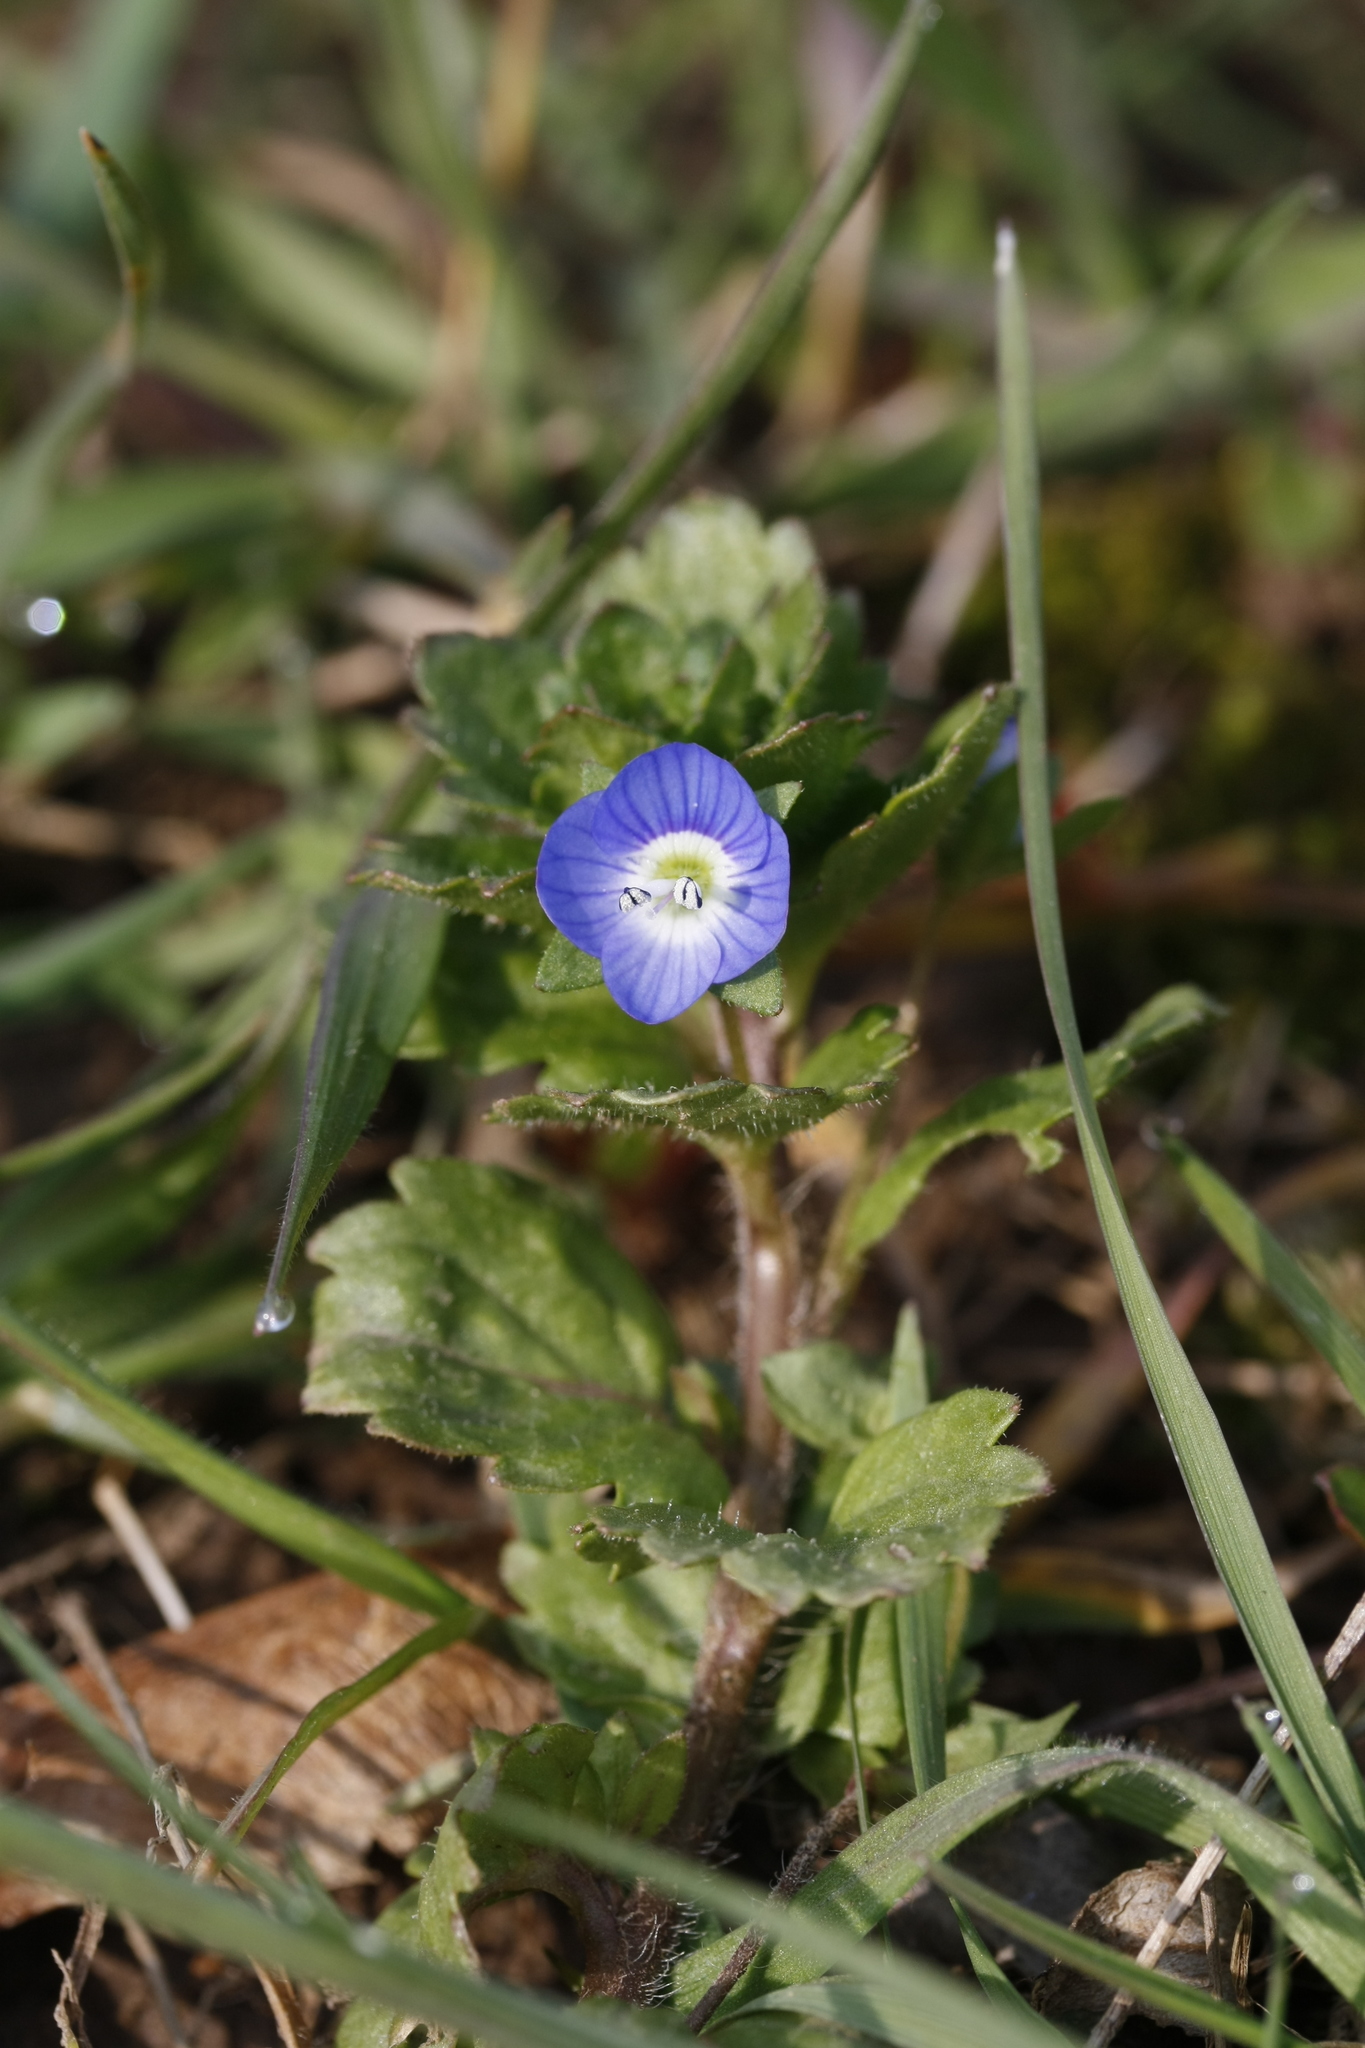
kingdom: Plantae
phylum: Tracheophyta
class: Magnoliopsida
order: Lamiales
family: Plantaginaceae
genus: Veronica
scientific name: Veronica persica
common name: Common field-speedwell
